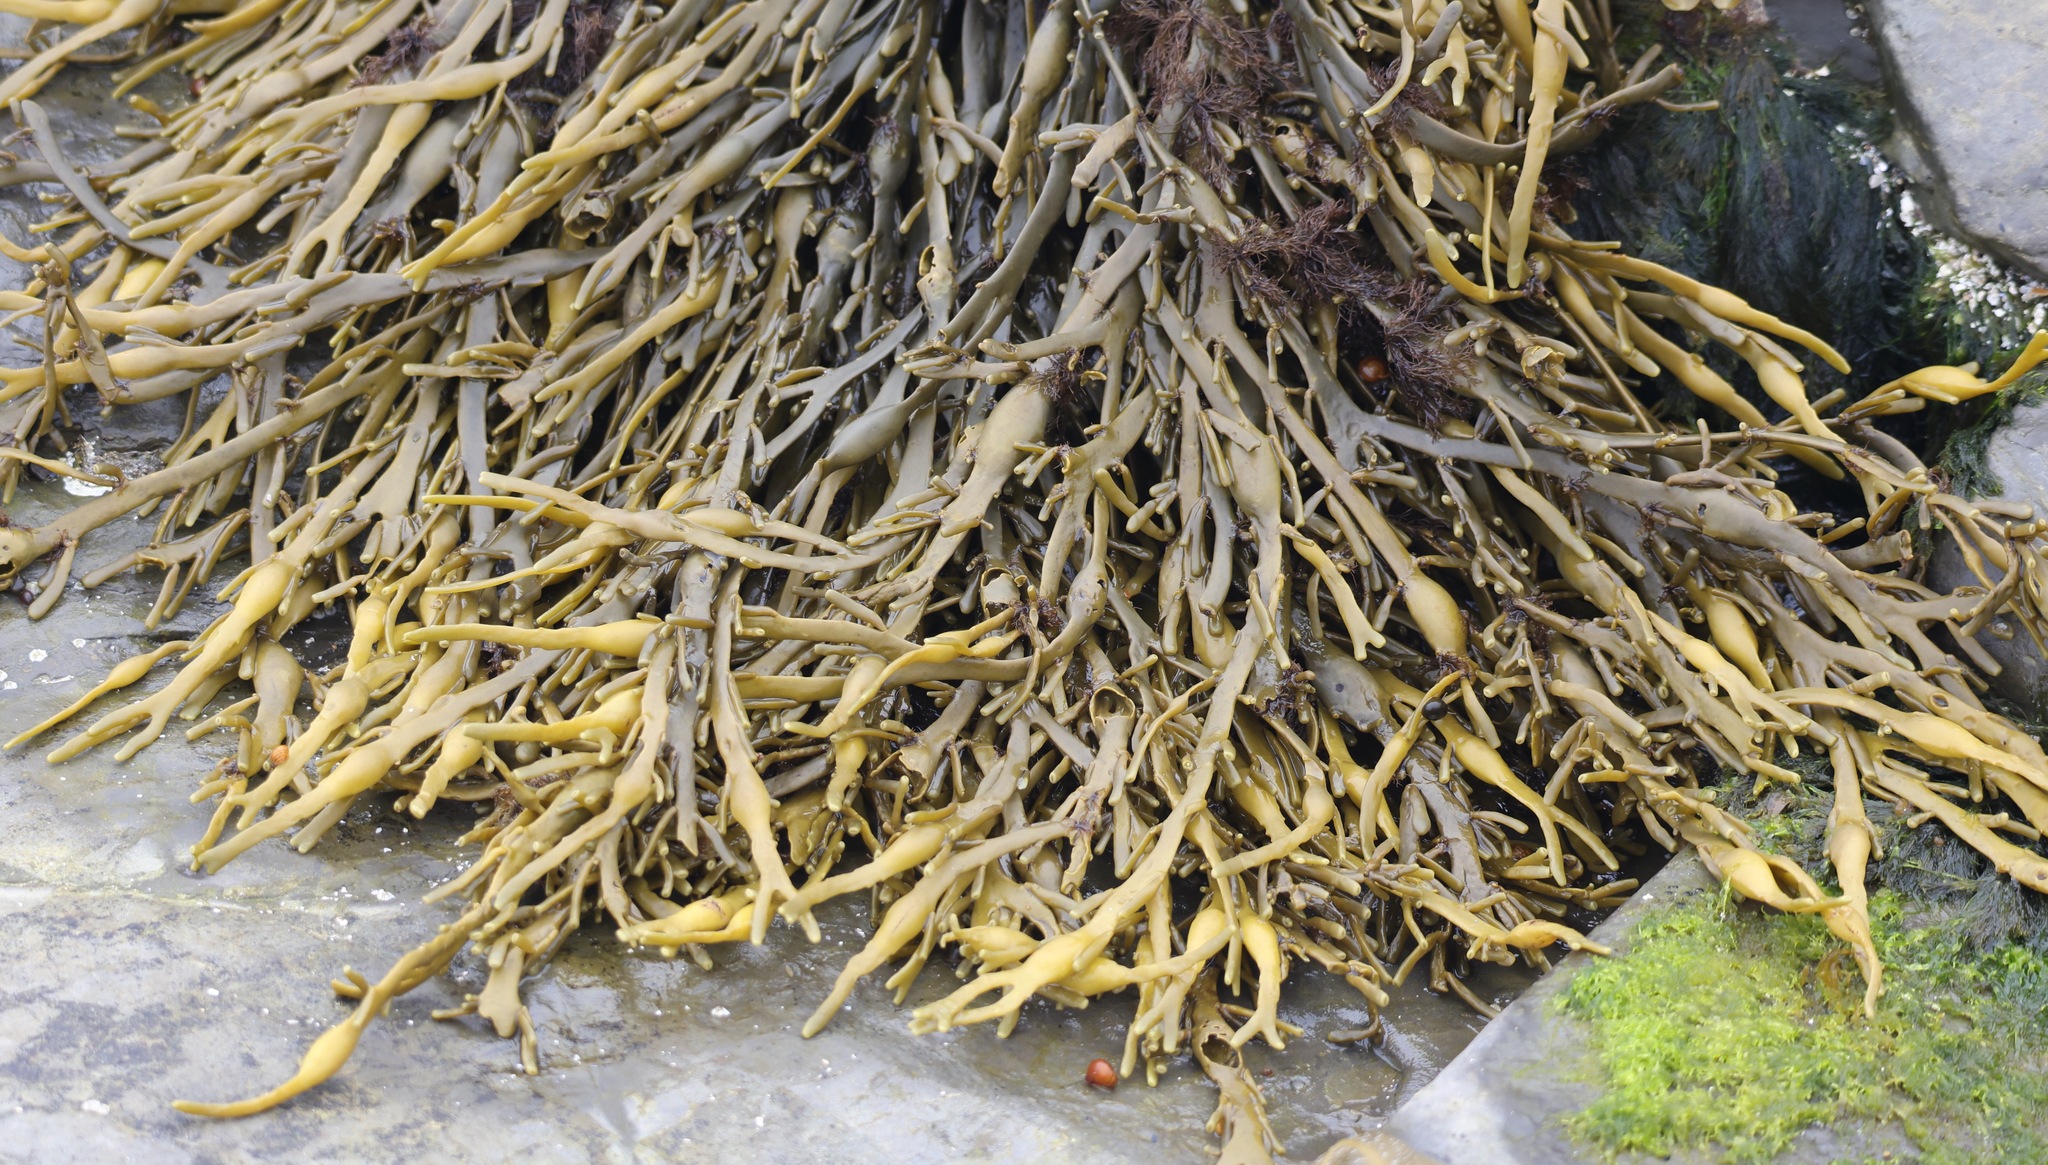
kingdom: Chromista
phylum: Ochrophyta
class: Phaeophyceae
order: Fucales
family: Fucaceae
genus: Ascophyllum
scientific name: Ascophyllum nodosum
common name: Knotted wrack
